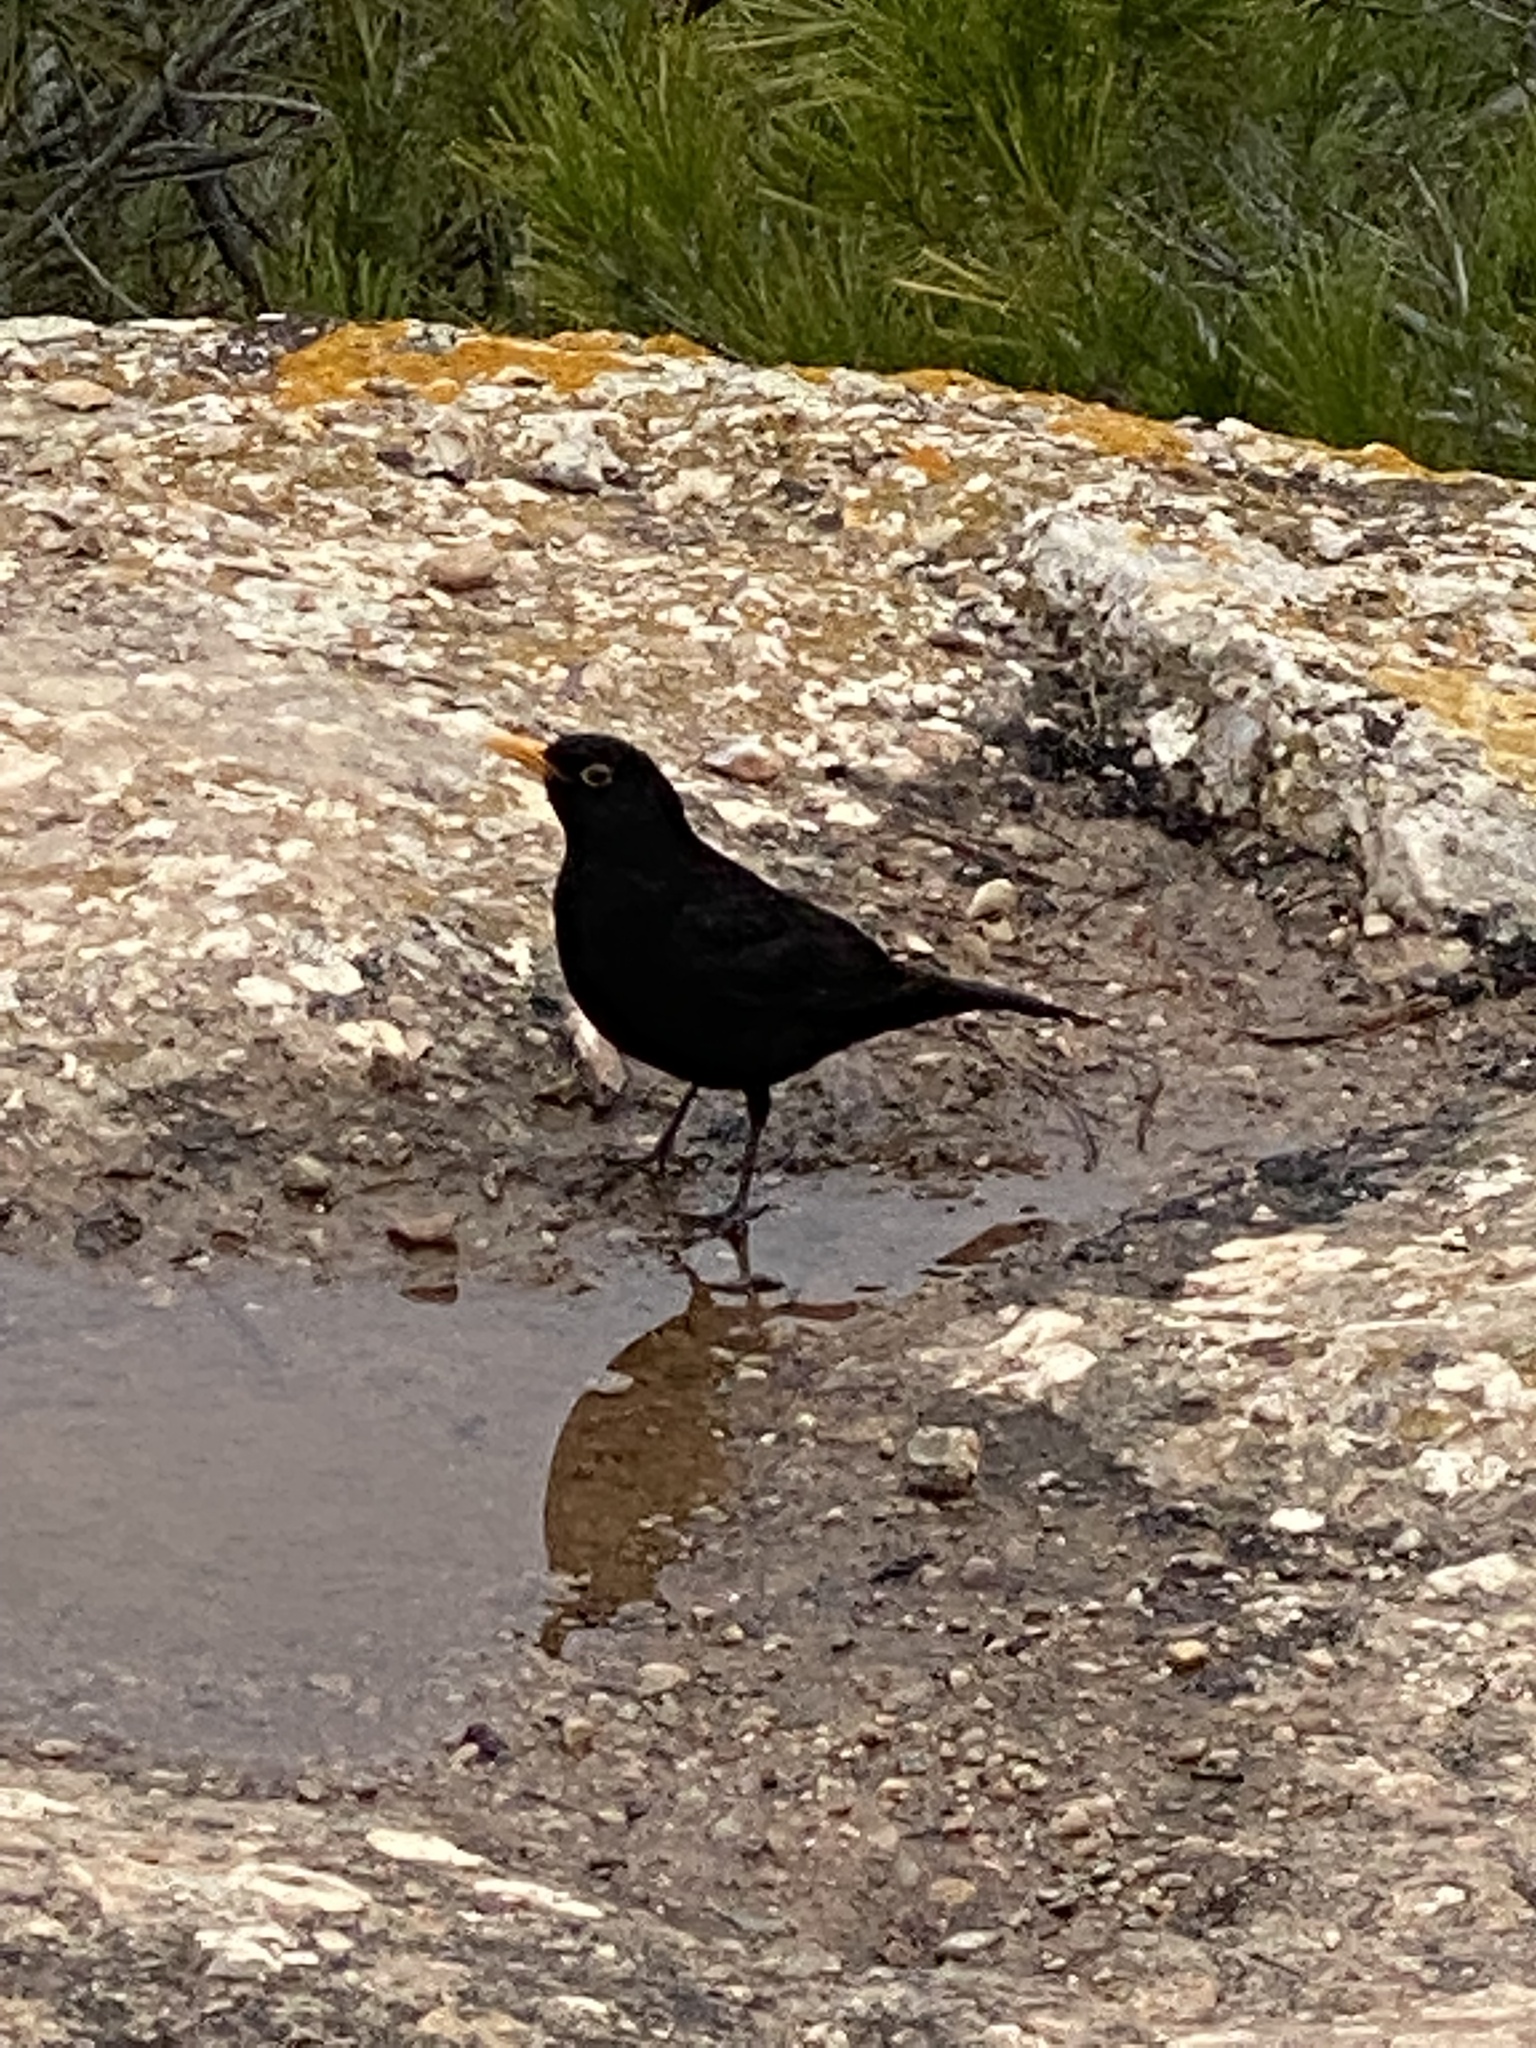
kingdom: Animalia
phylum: Chordata
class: Aves
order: Passeriformes
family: Turdidae
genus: Turdus
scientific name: Turdus merula
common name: Common blackbird
